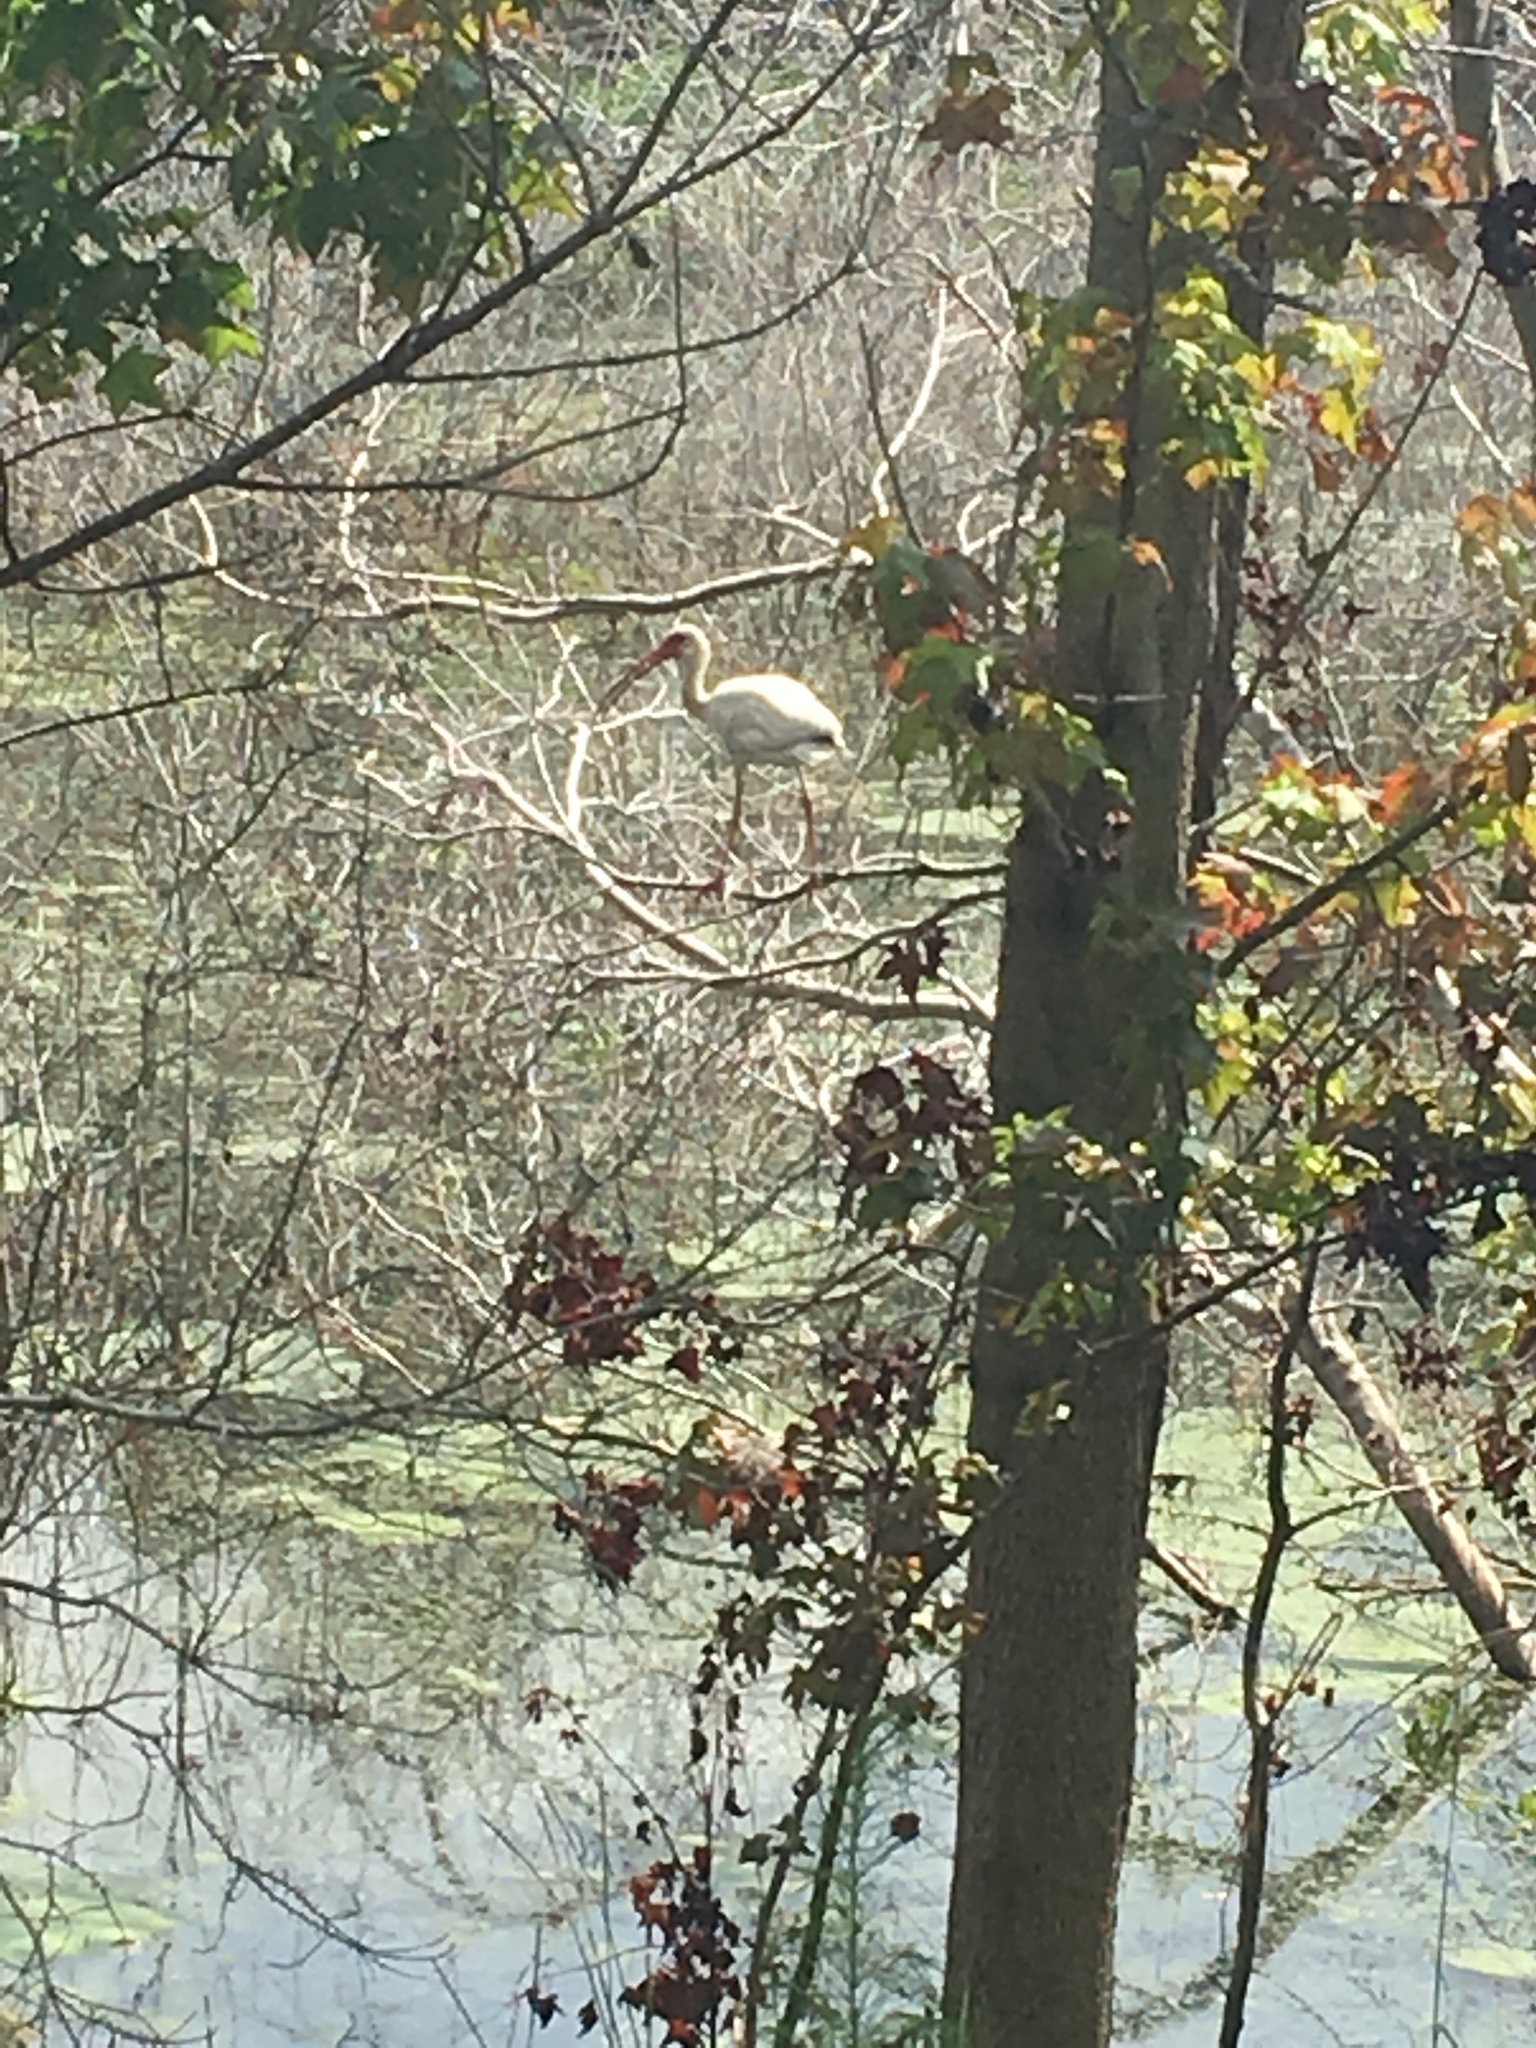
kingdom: Animalia
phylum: Chordata
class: Aves
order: Pelecaniformes
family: Threskiornithidae
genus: Eudocimus
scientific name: Eudocimus albus
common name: White ibis
